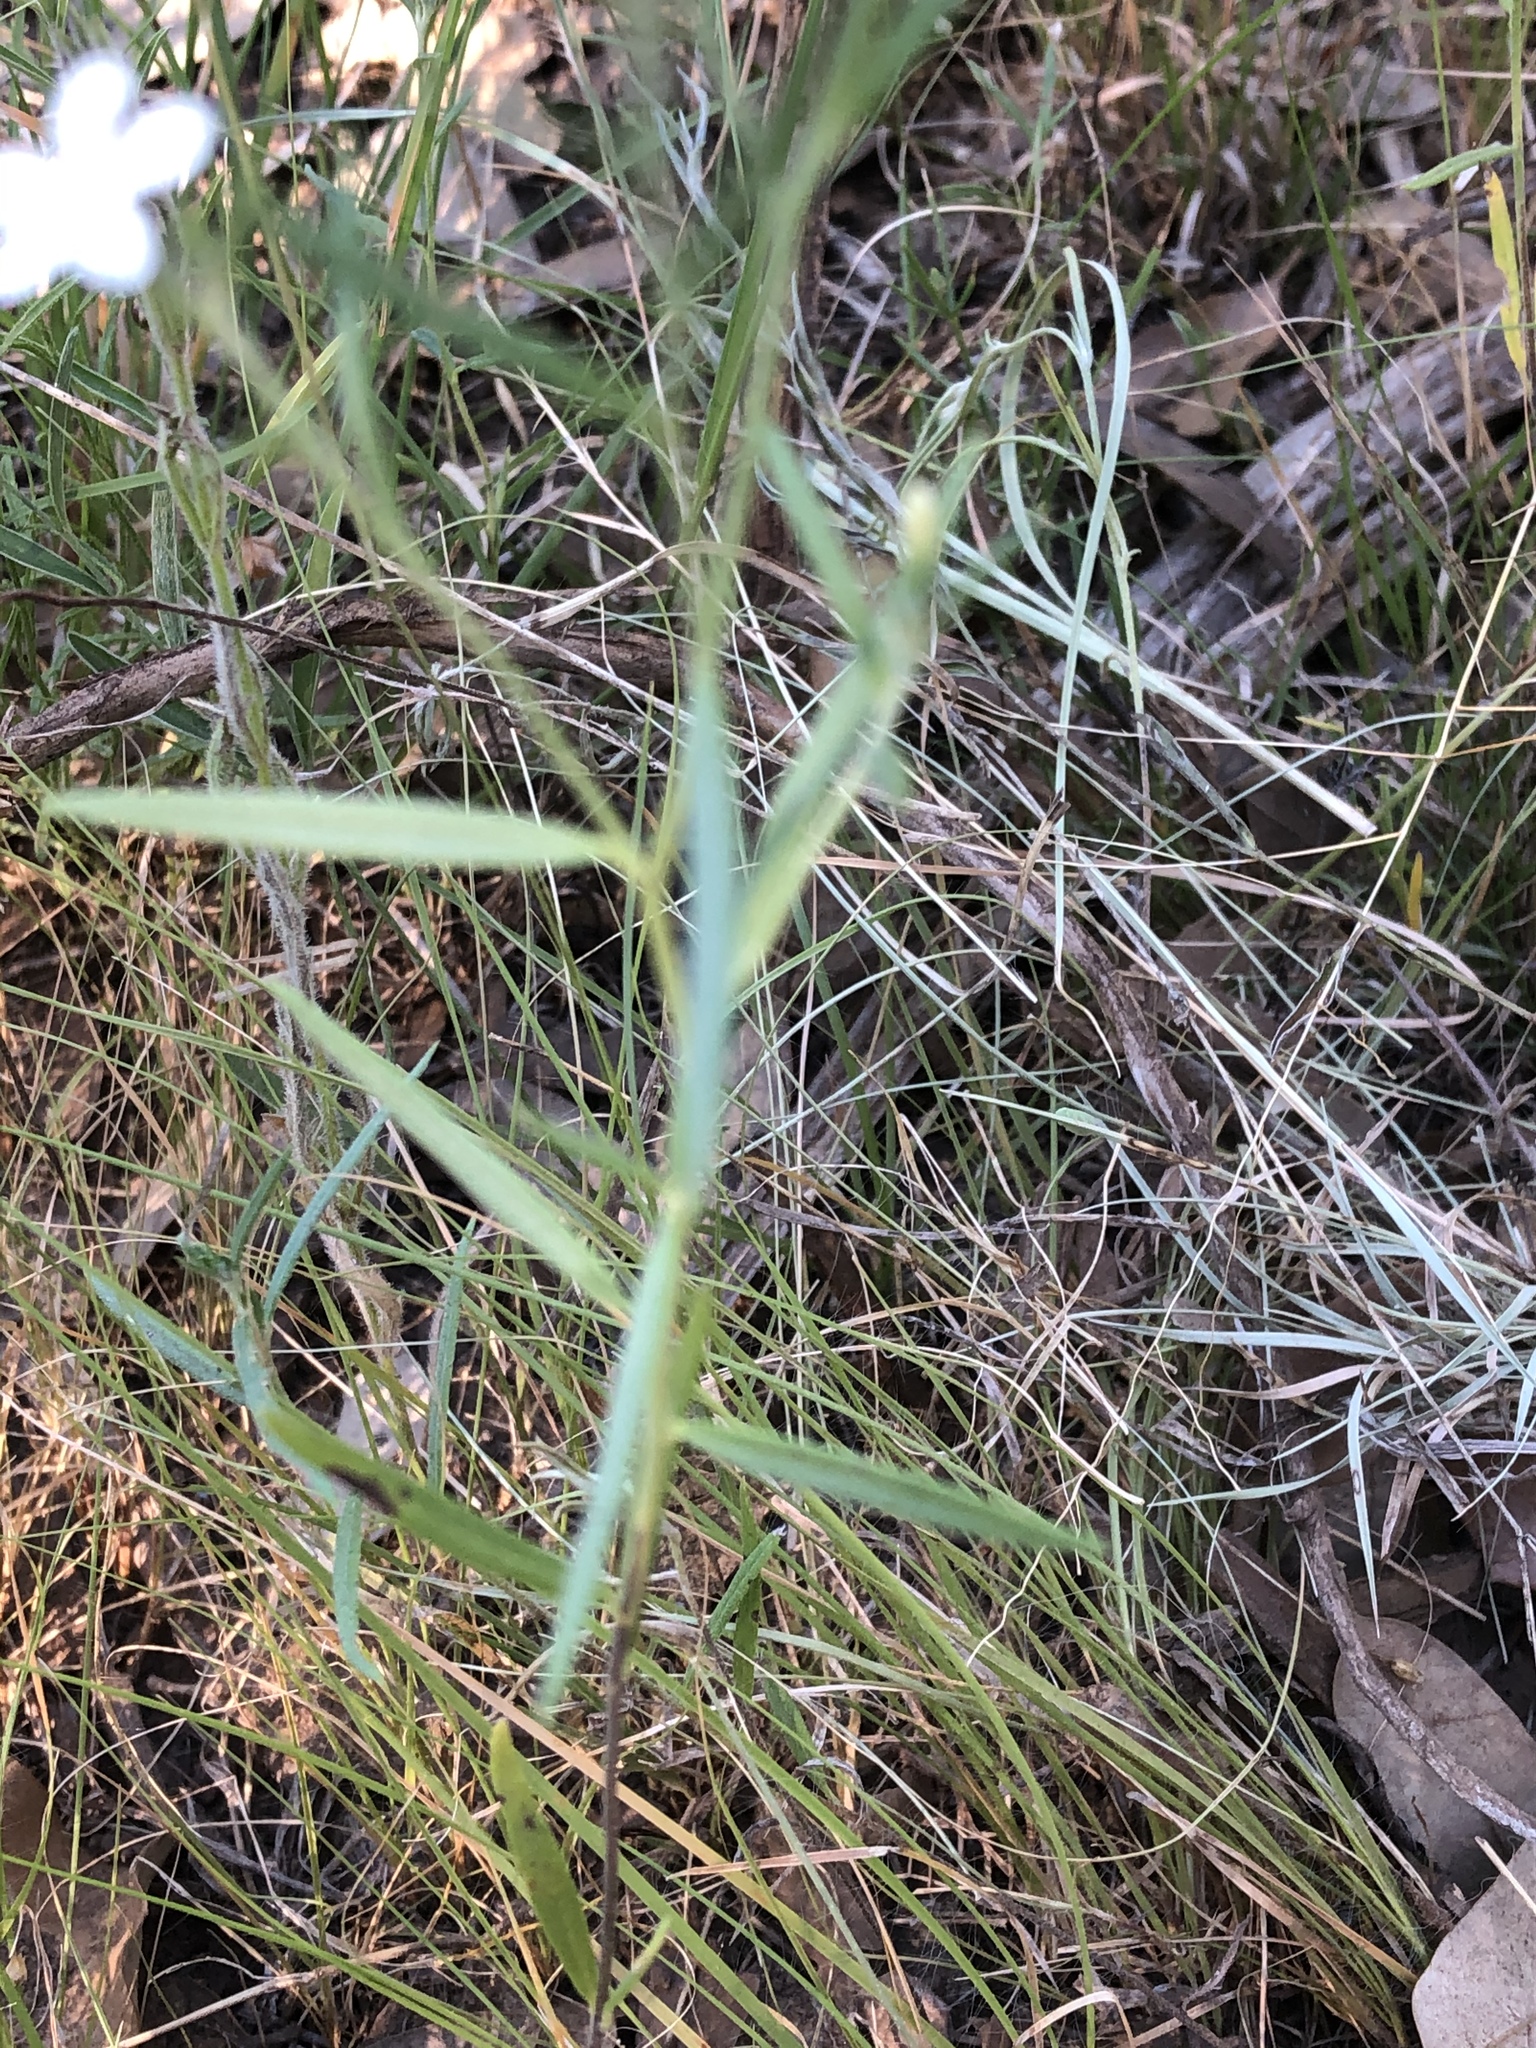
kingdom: Plantae
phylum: Tracheophyta
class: Magnoliopsida
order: Boraginales
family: Heliotropiaceae
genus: Euploca
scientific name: Euploca tenella
